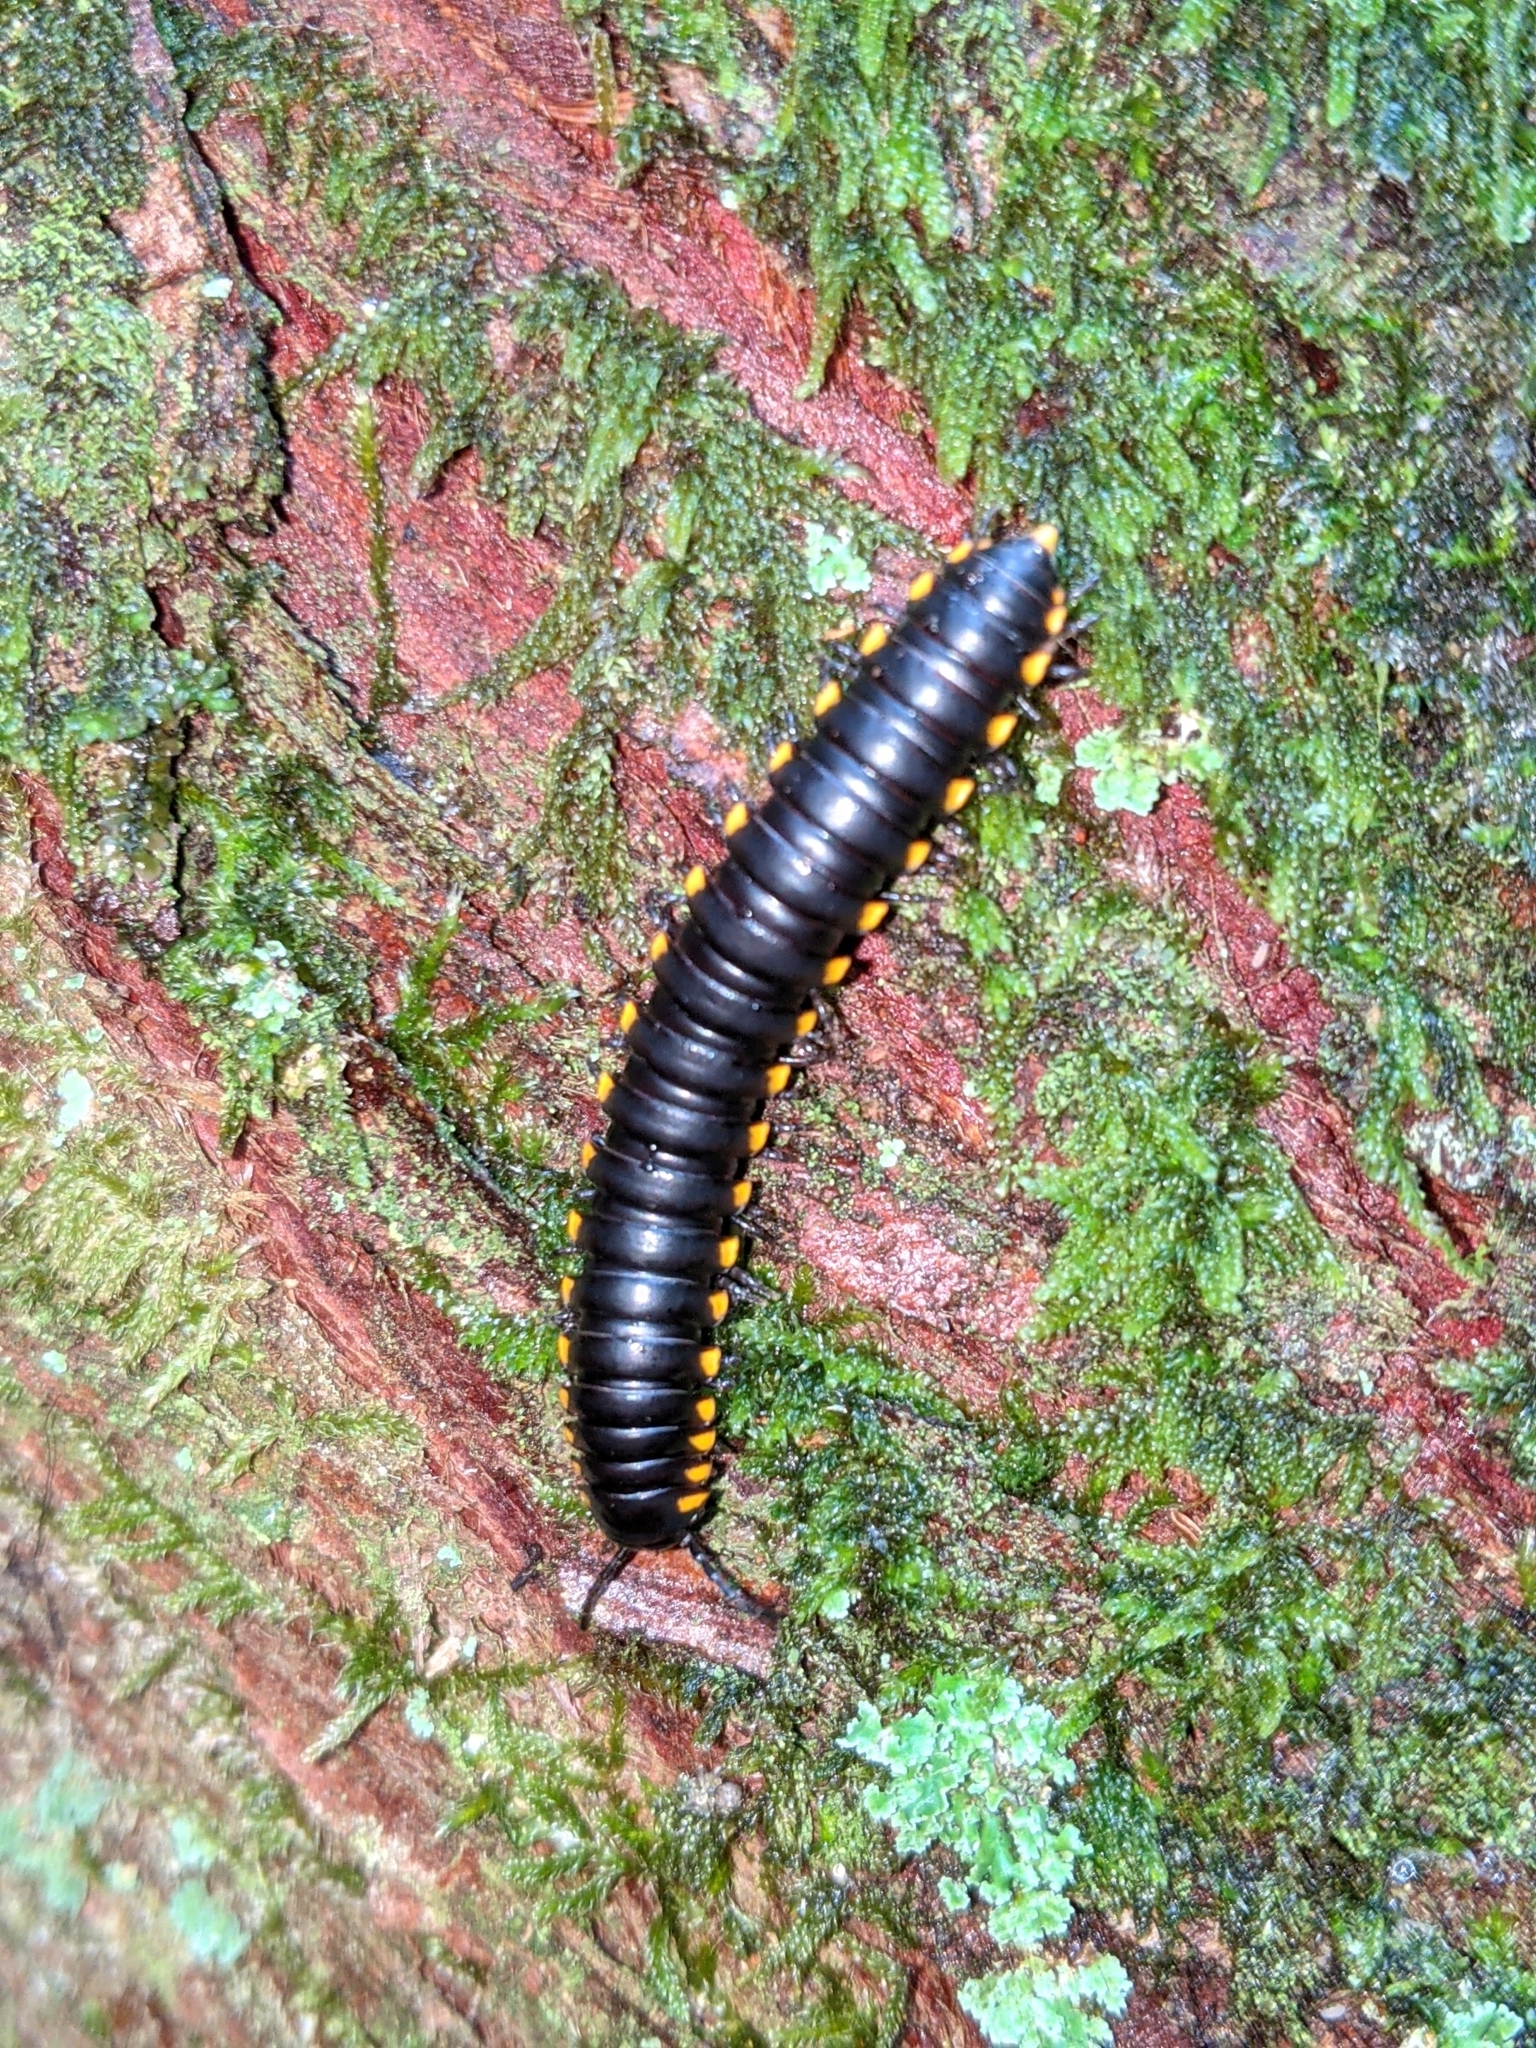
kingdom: Animalia
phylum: Arthropoda
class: Diplopoda
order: Polydesmida
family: Xystodesmidae
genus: Harpaphe
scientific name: Harpaphe haydeniana
